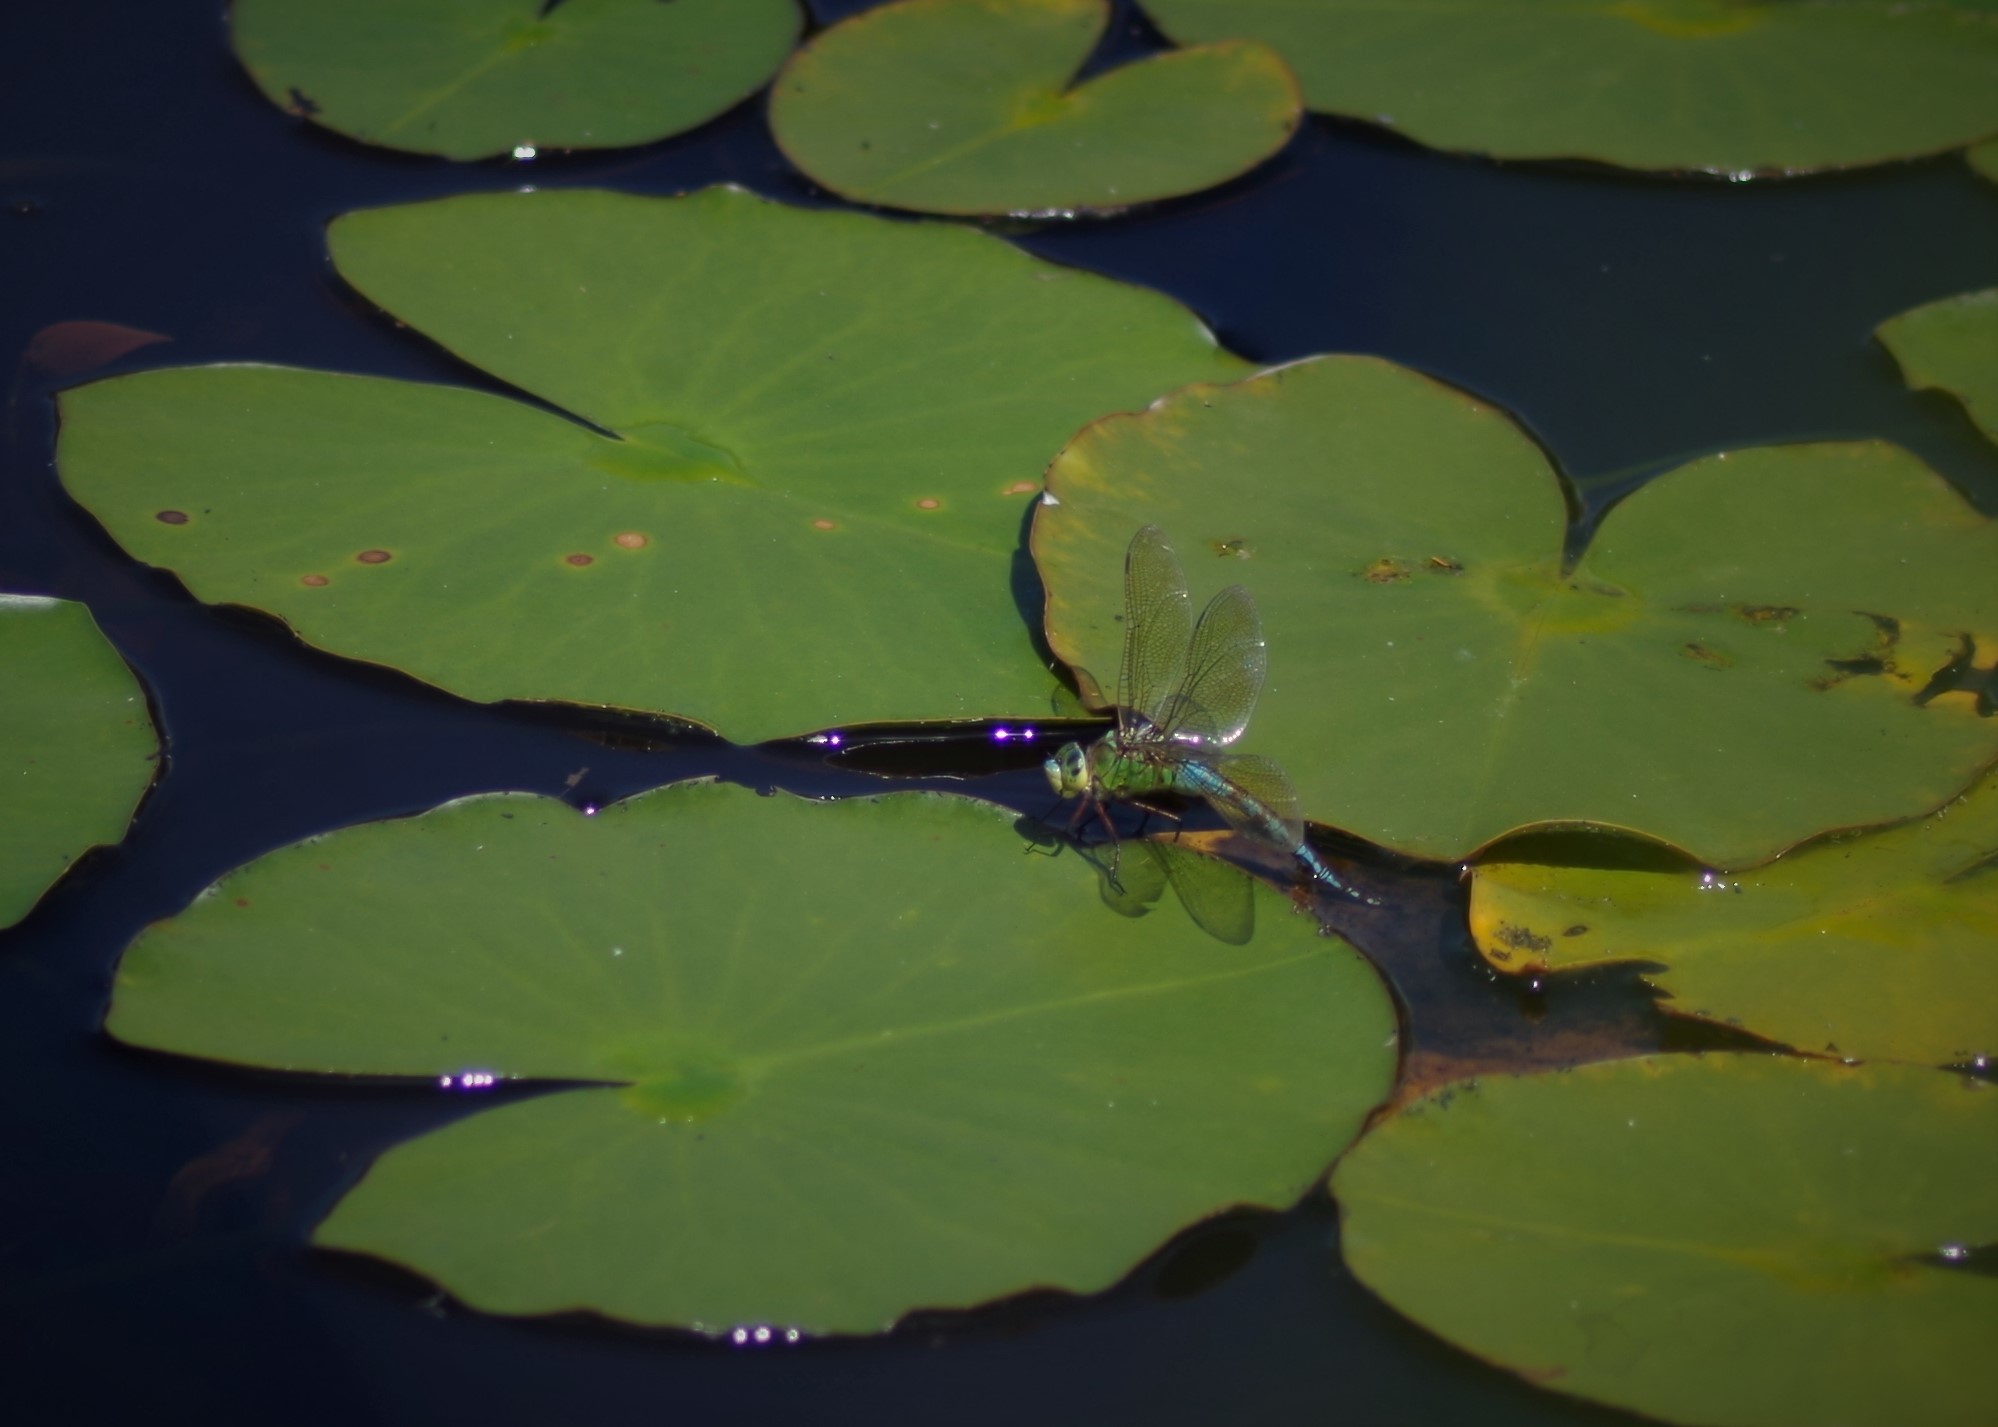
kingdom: Animalia
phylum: Arthropoda
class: Insecta
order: Odonata
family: Aeshnidae
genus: Anax
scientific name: Anax imperator
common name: Emperor dragonfly
